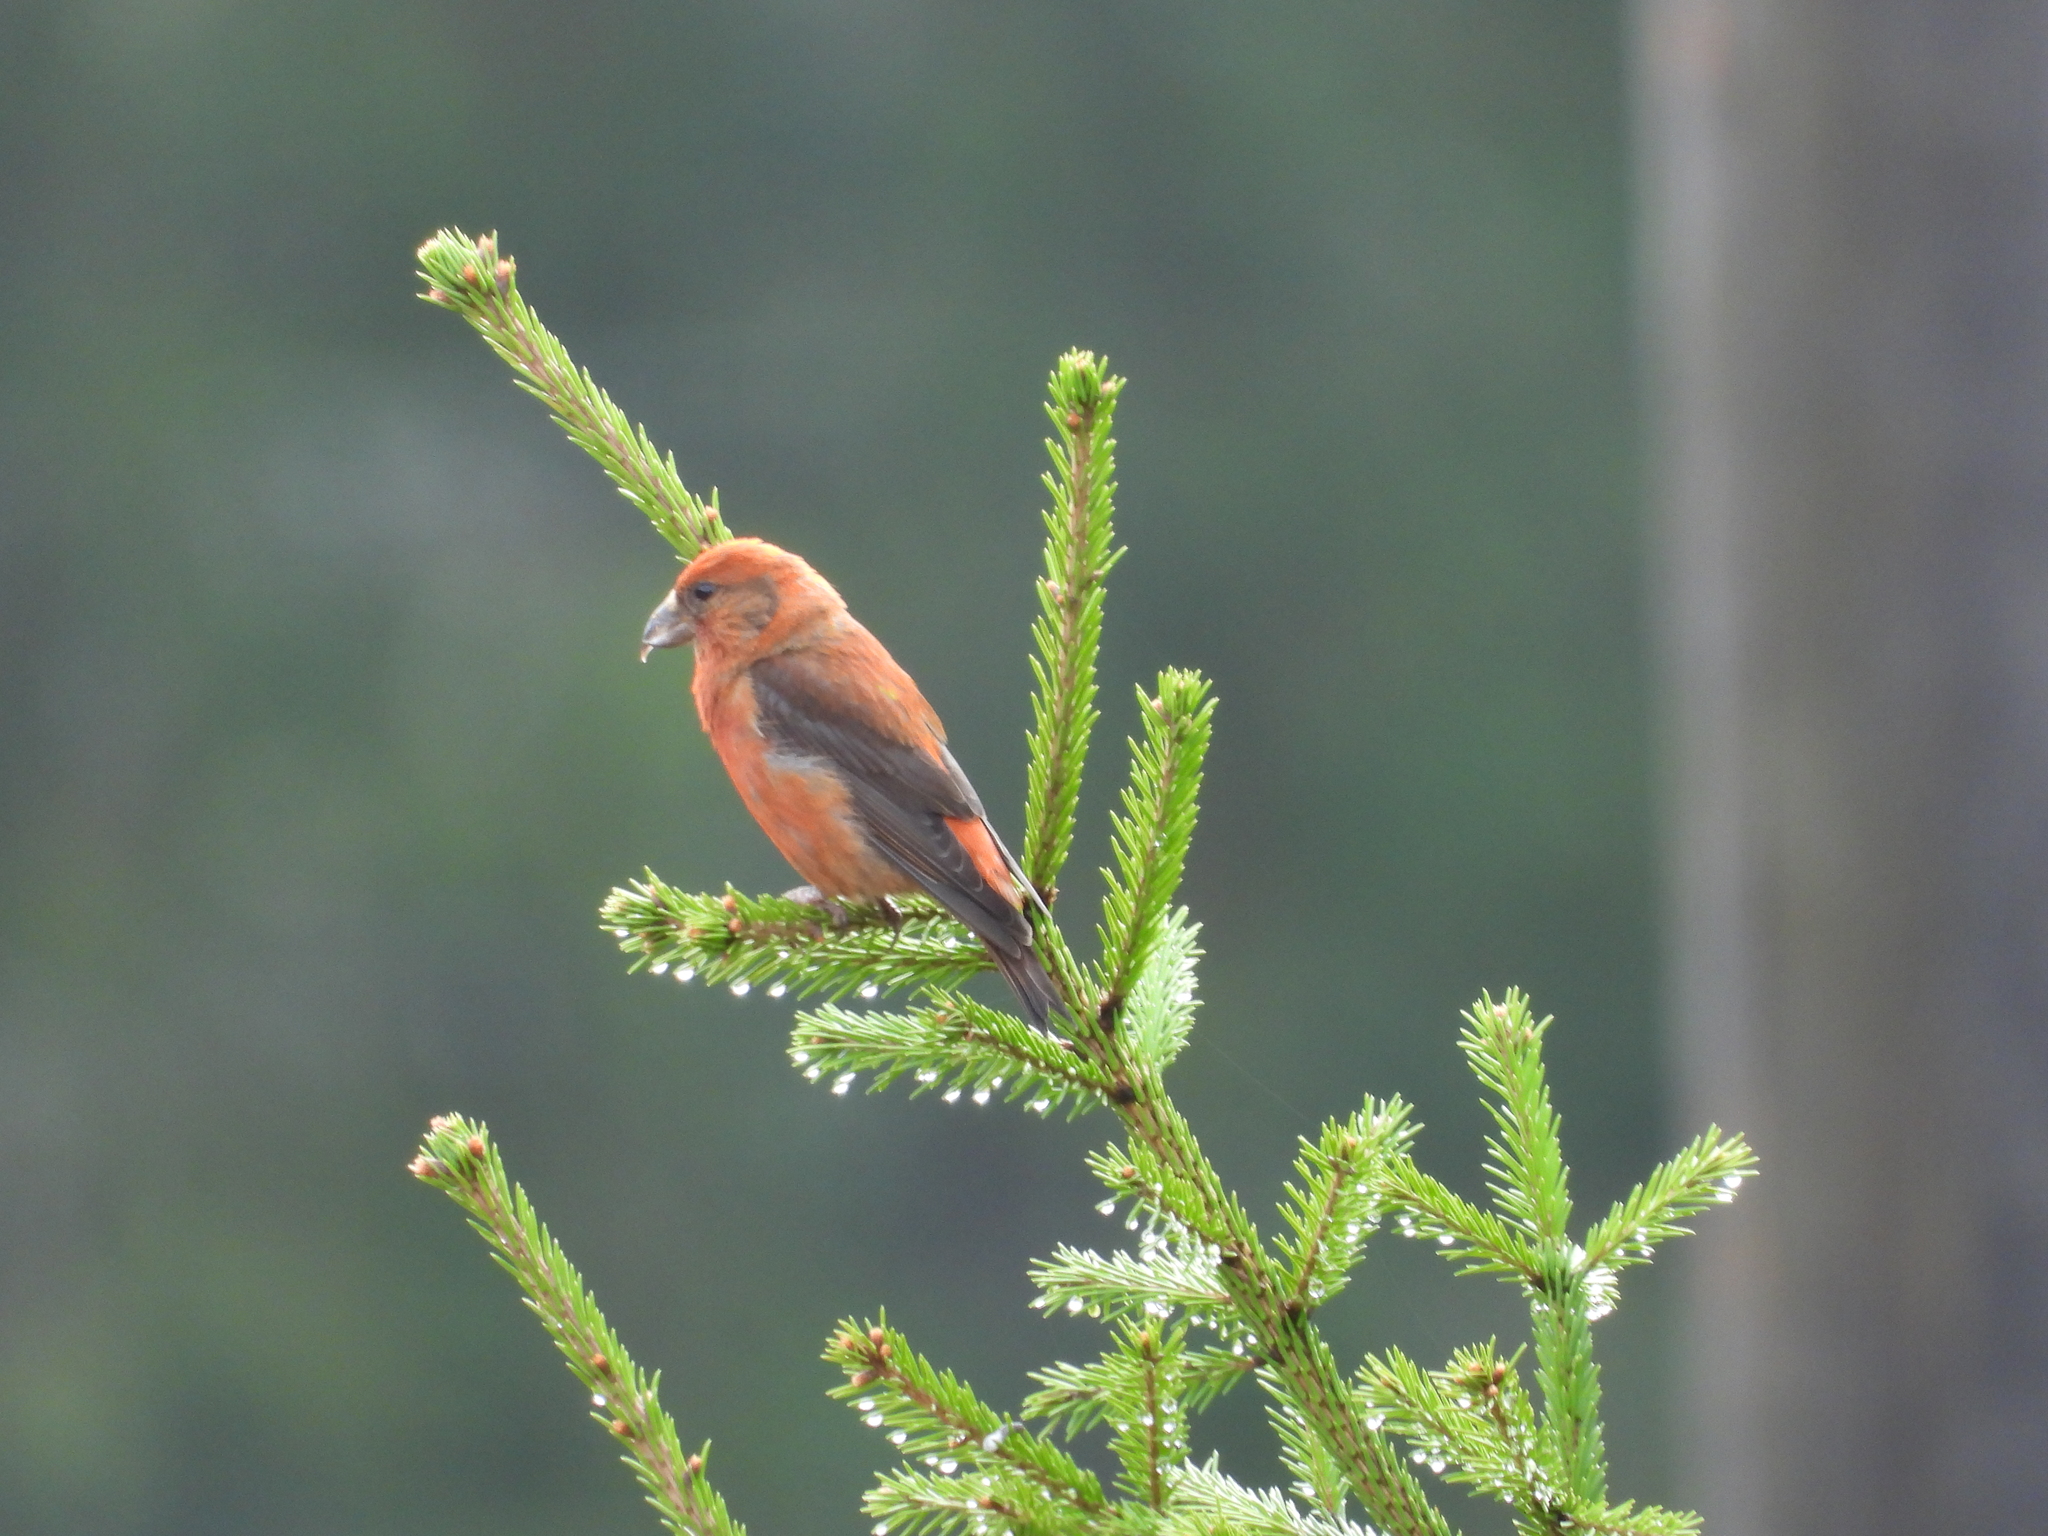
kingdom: Animalia
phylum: Chordata
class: Aves
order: Passeriformes
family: Fringillidae
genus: Loxia
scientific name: Loxia curvirostra
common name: Red crossbill
